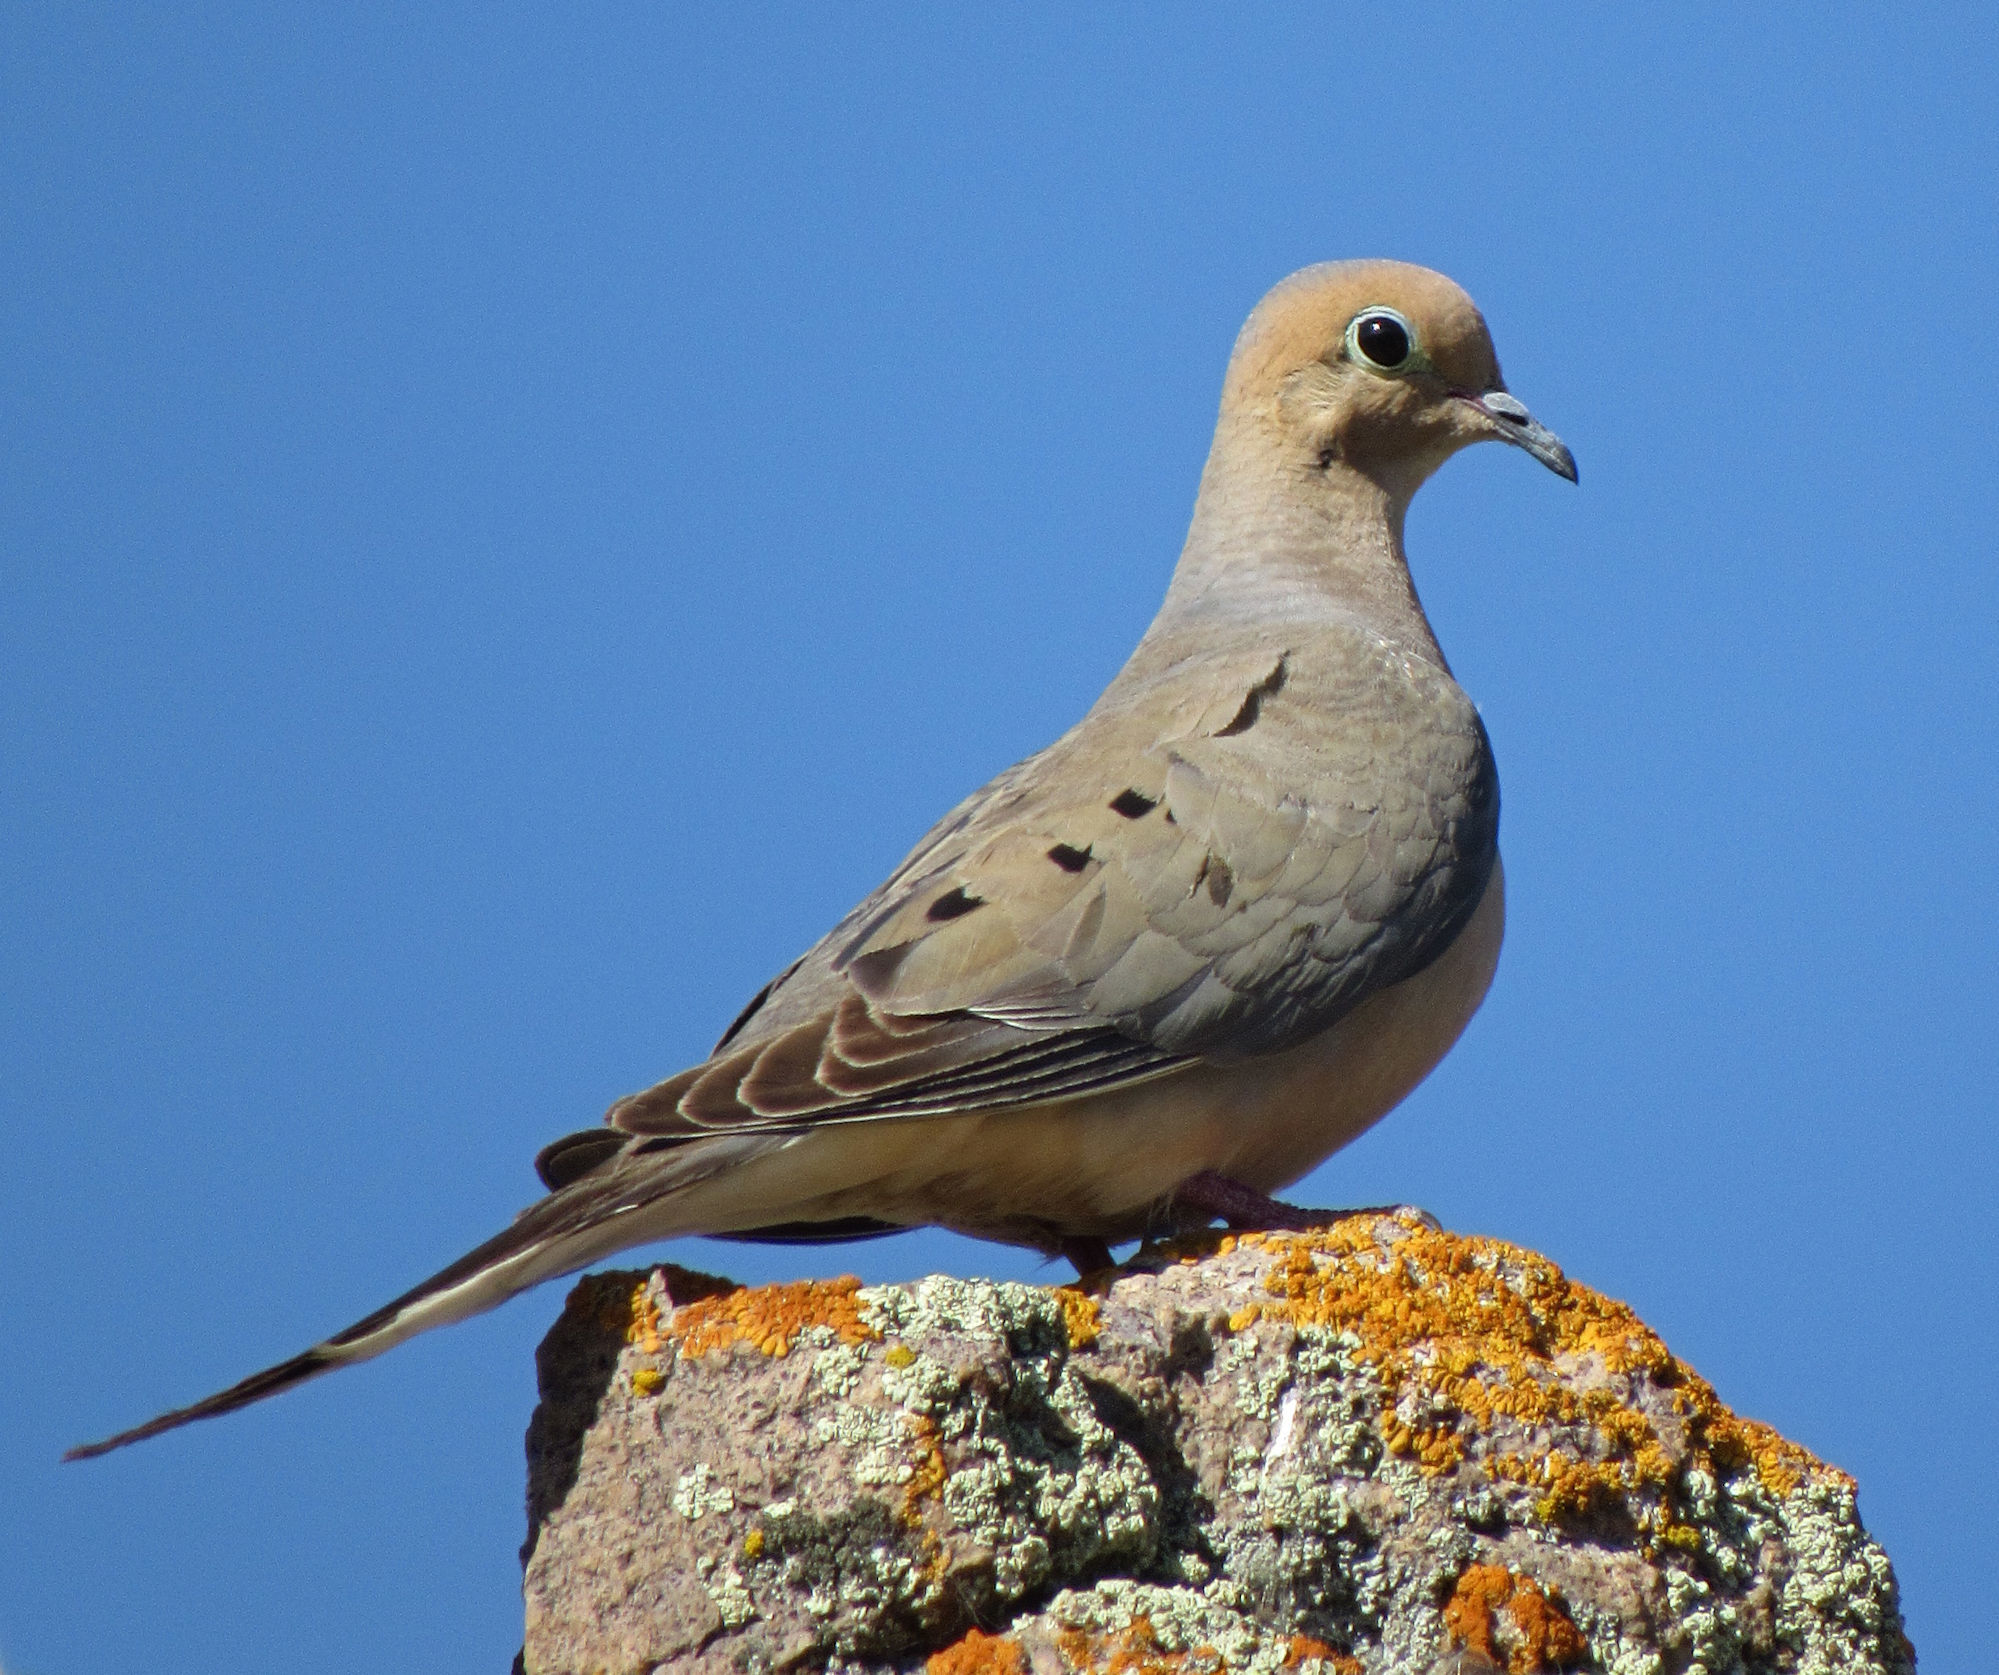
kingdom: Animalia
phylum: Chordata
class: Aves
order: Columbiformes
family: Columbidae
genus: Zenaida
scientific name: Zenaida macroura
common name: Mourning dove
